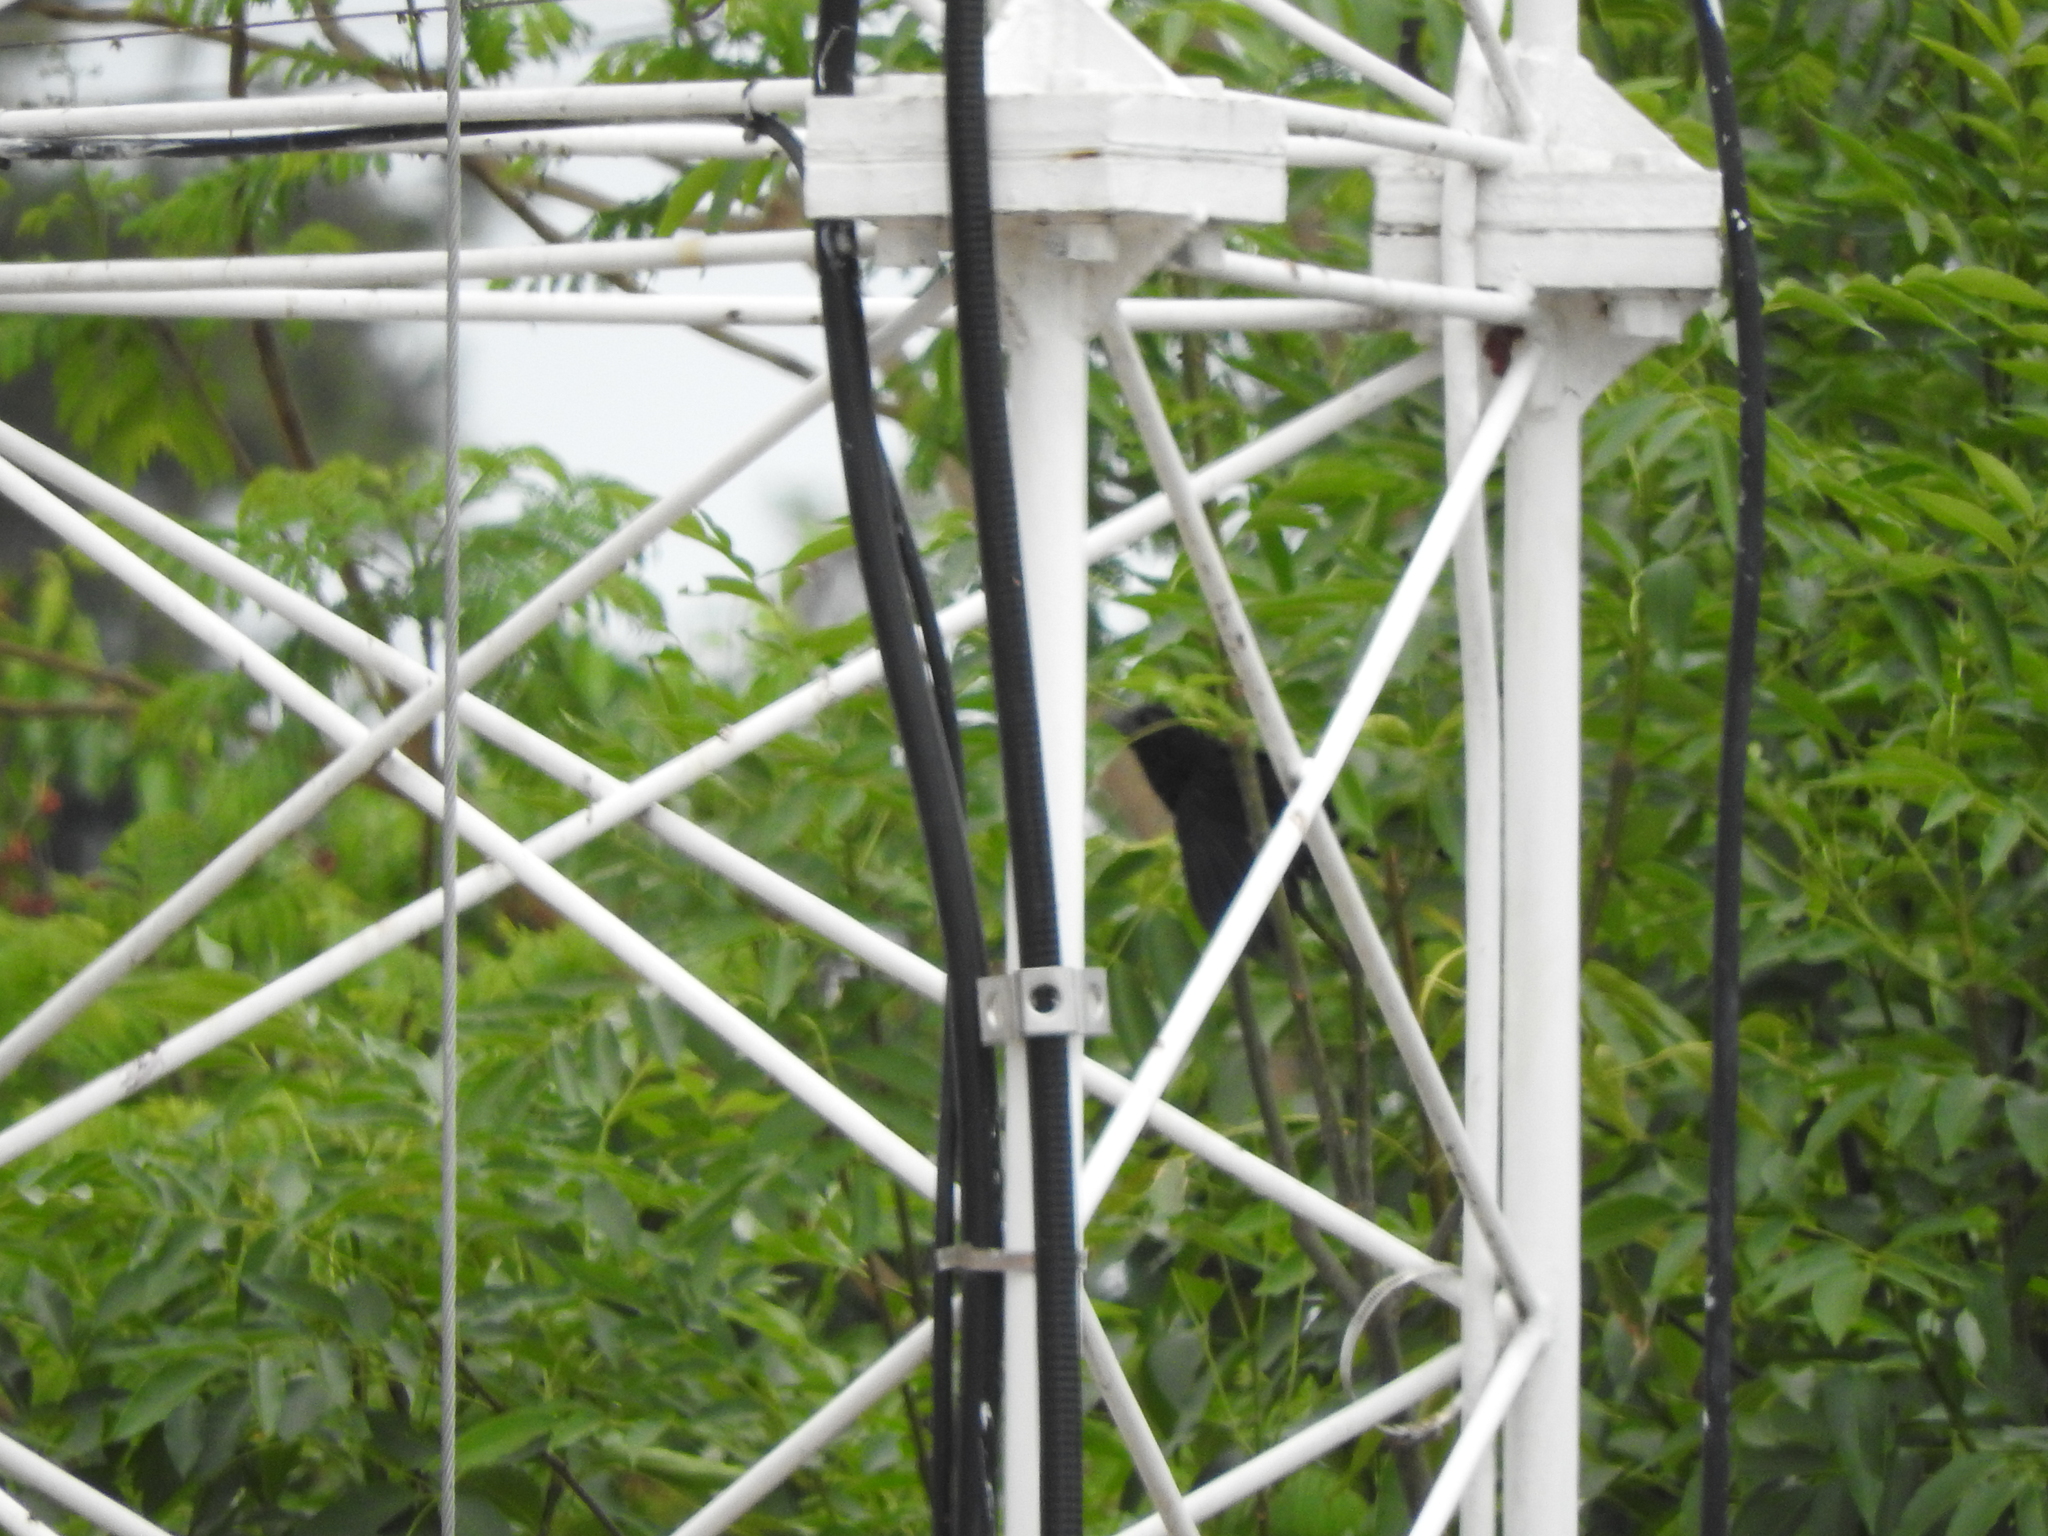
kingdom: Animalia
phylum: Chordata
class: Aves
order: Cuculiformes
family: Cuculidae
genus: Crotophaga
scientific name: Crotophaga sulcirostris
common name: Groove-billed ani
